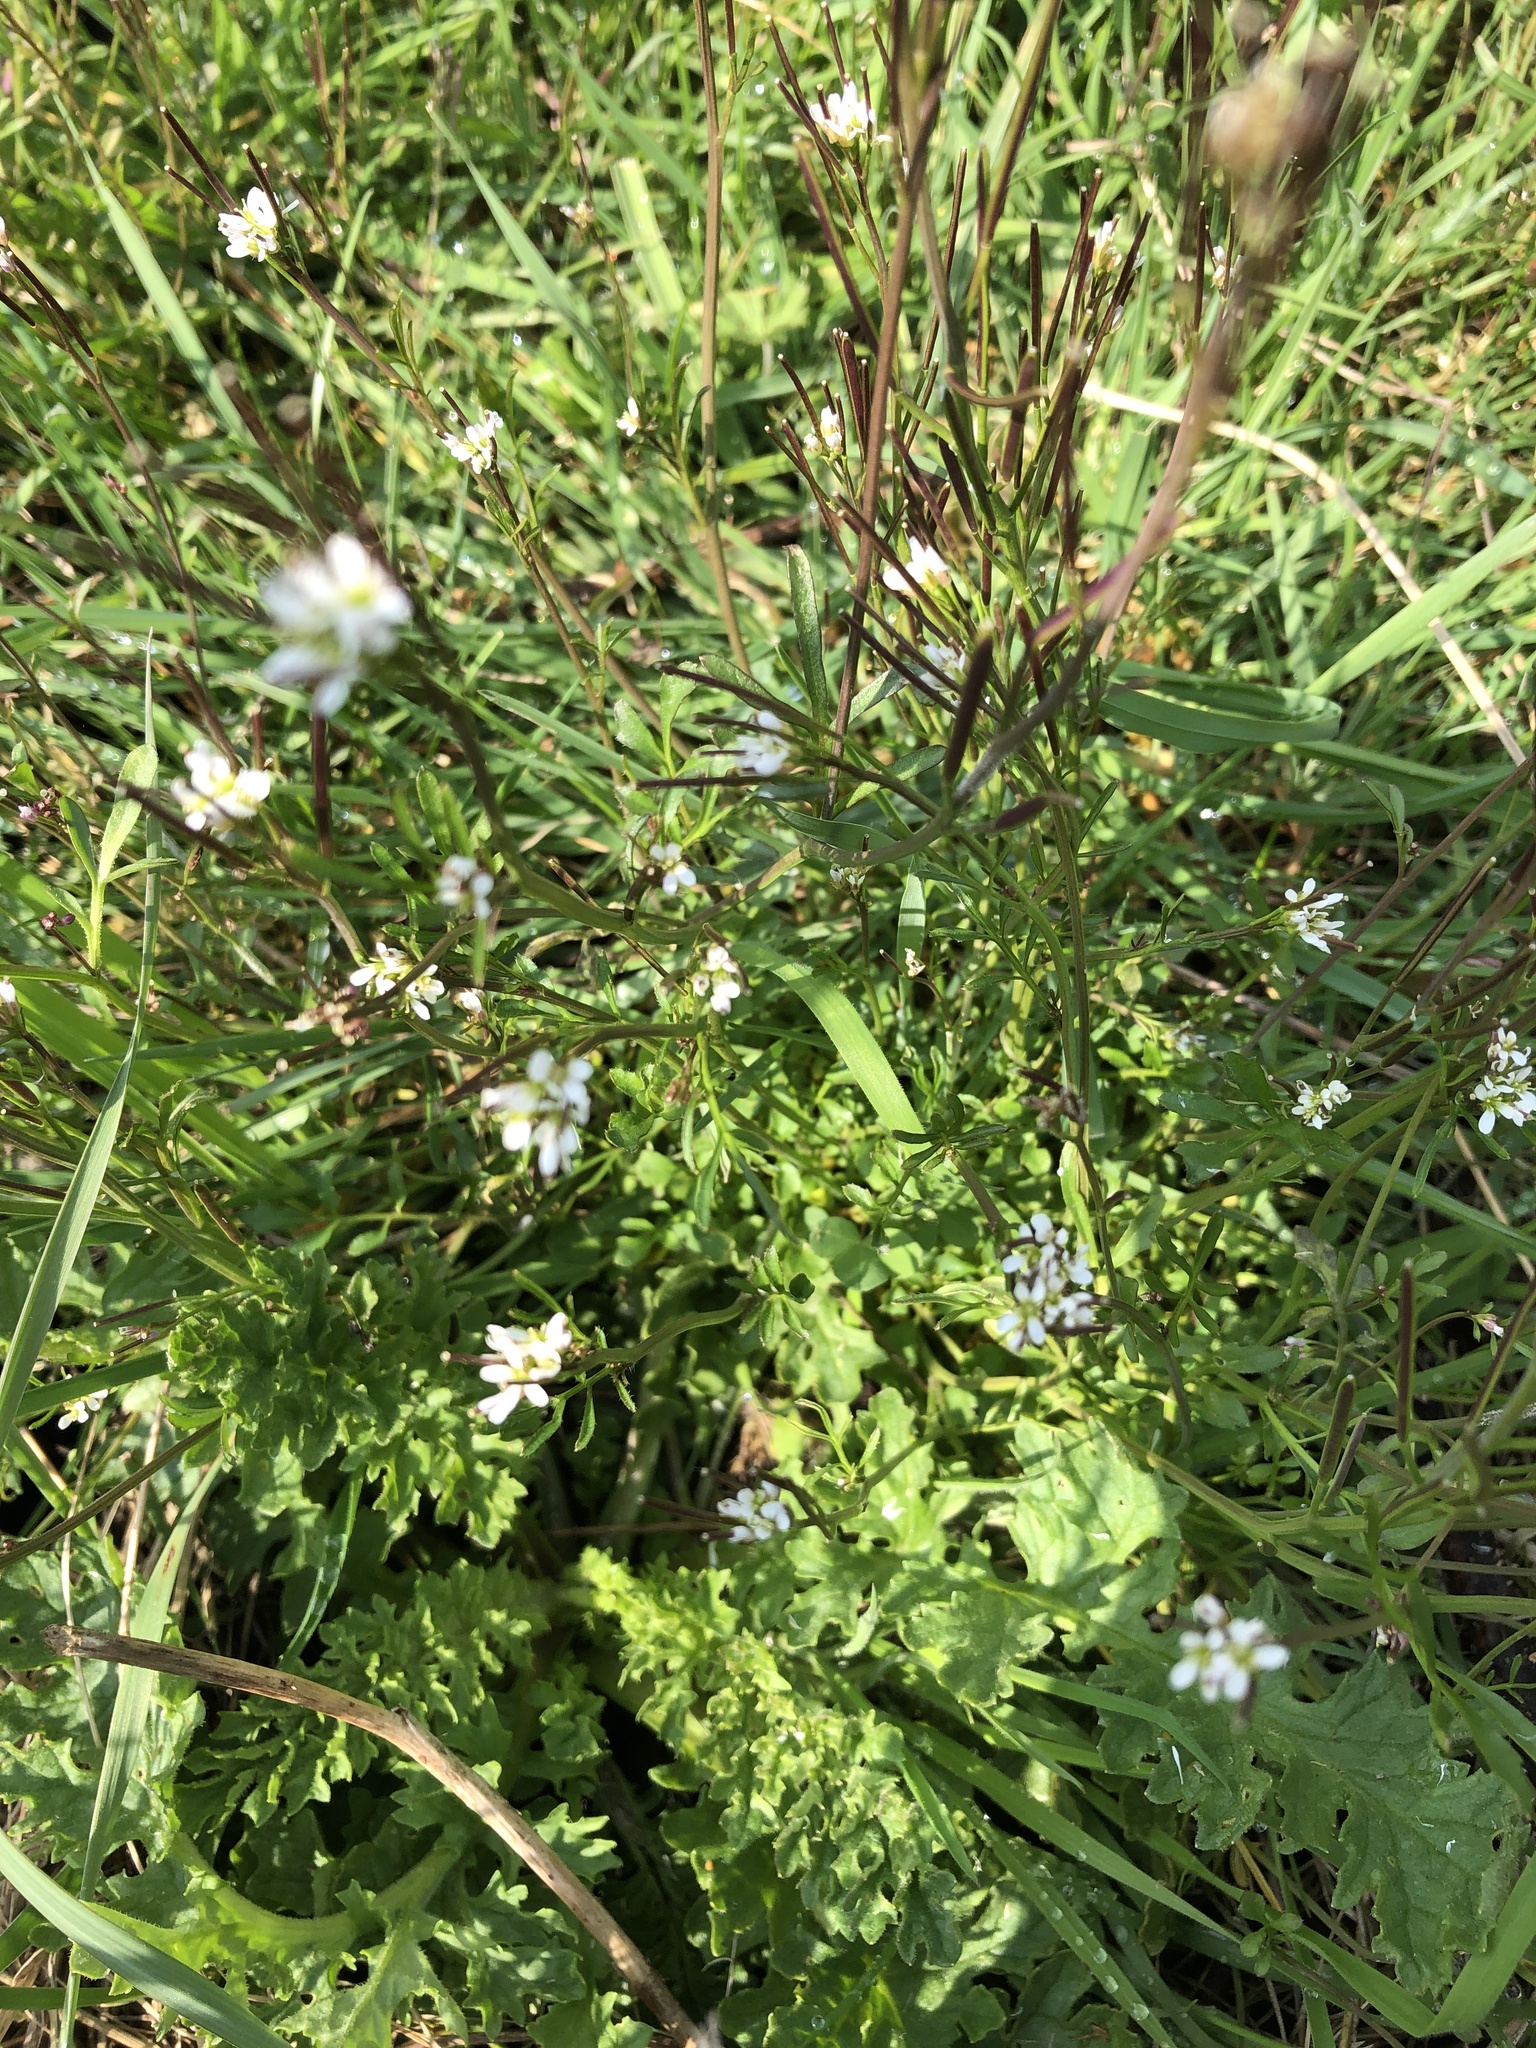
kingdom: Plantae
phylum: Tracheophyta
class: Magnoliopsida
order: Brassicales
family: Brassicaceae
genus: Cardamine
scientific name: Cardamine hirsuta
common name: Hairy bittercress
